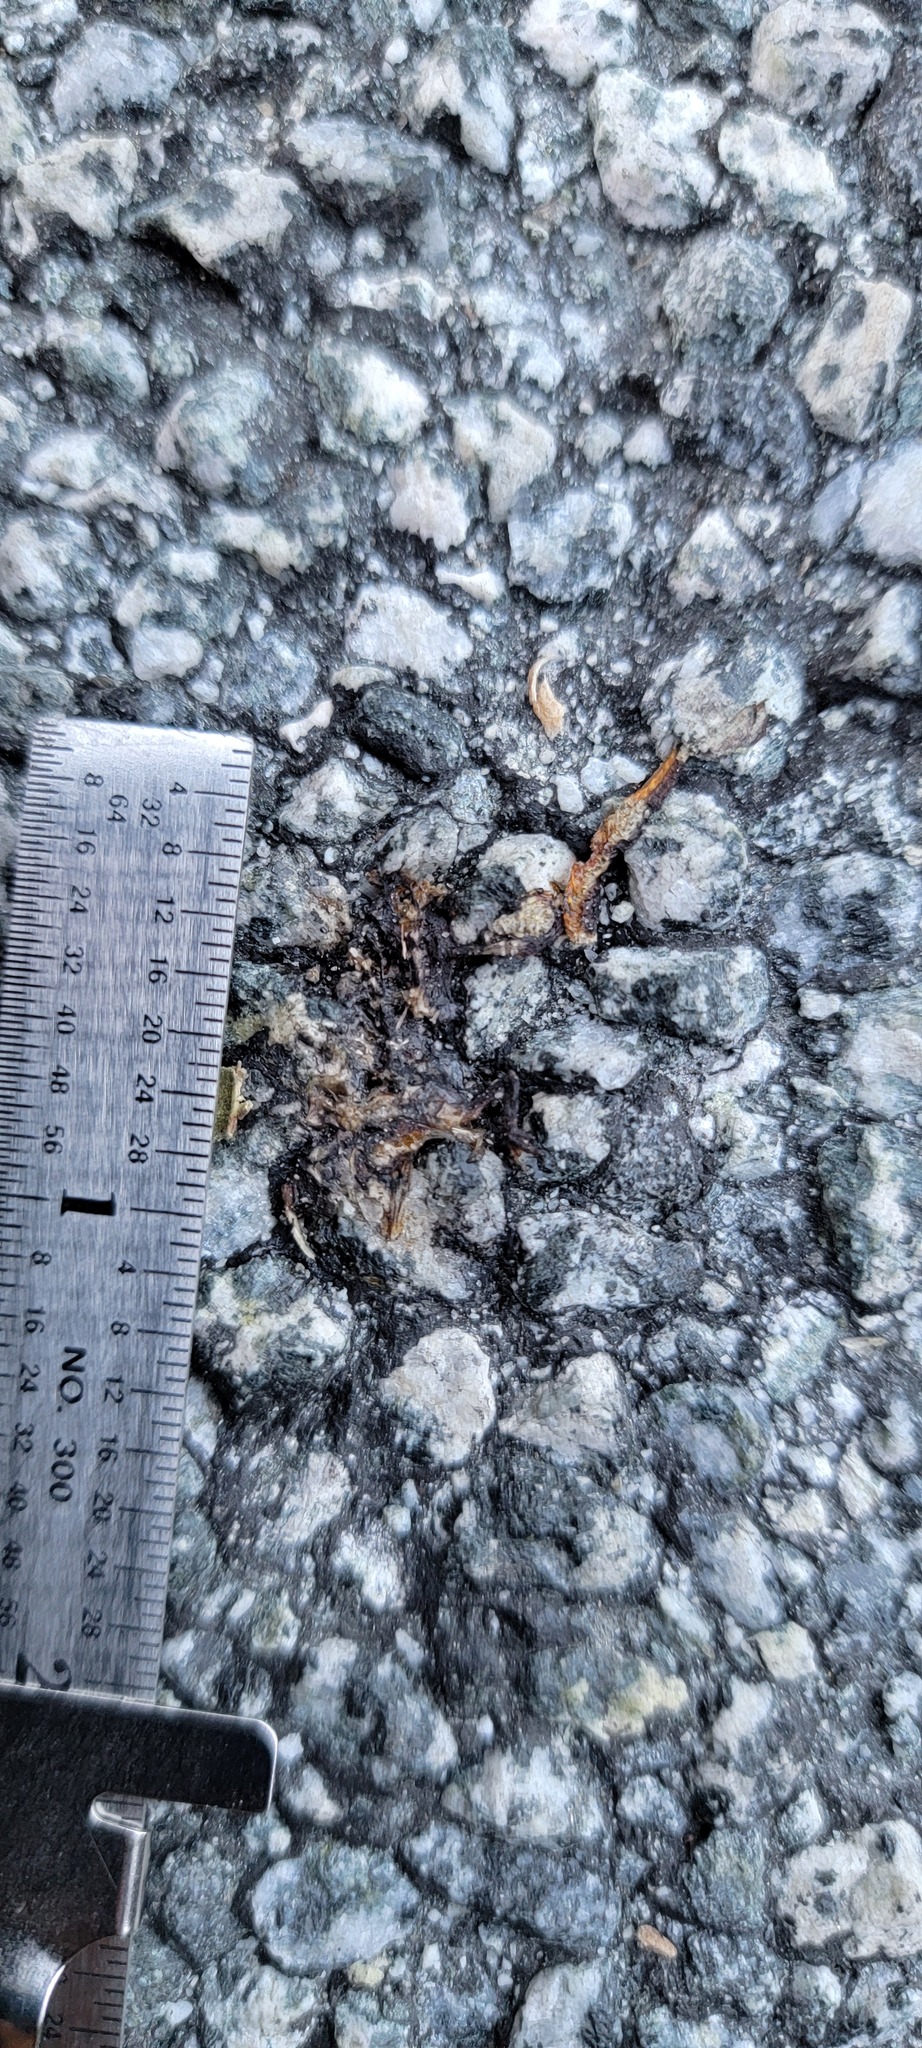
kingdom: Animalia
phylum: Chordata
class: Amphibia
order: Caudata
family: Salamandridae
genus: Taricha
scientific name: Taricha
